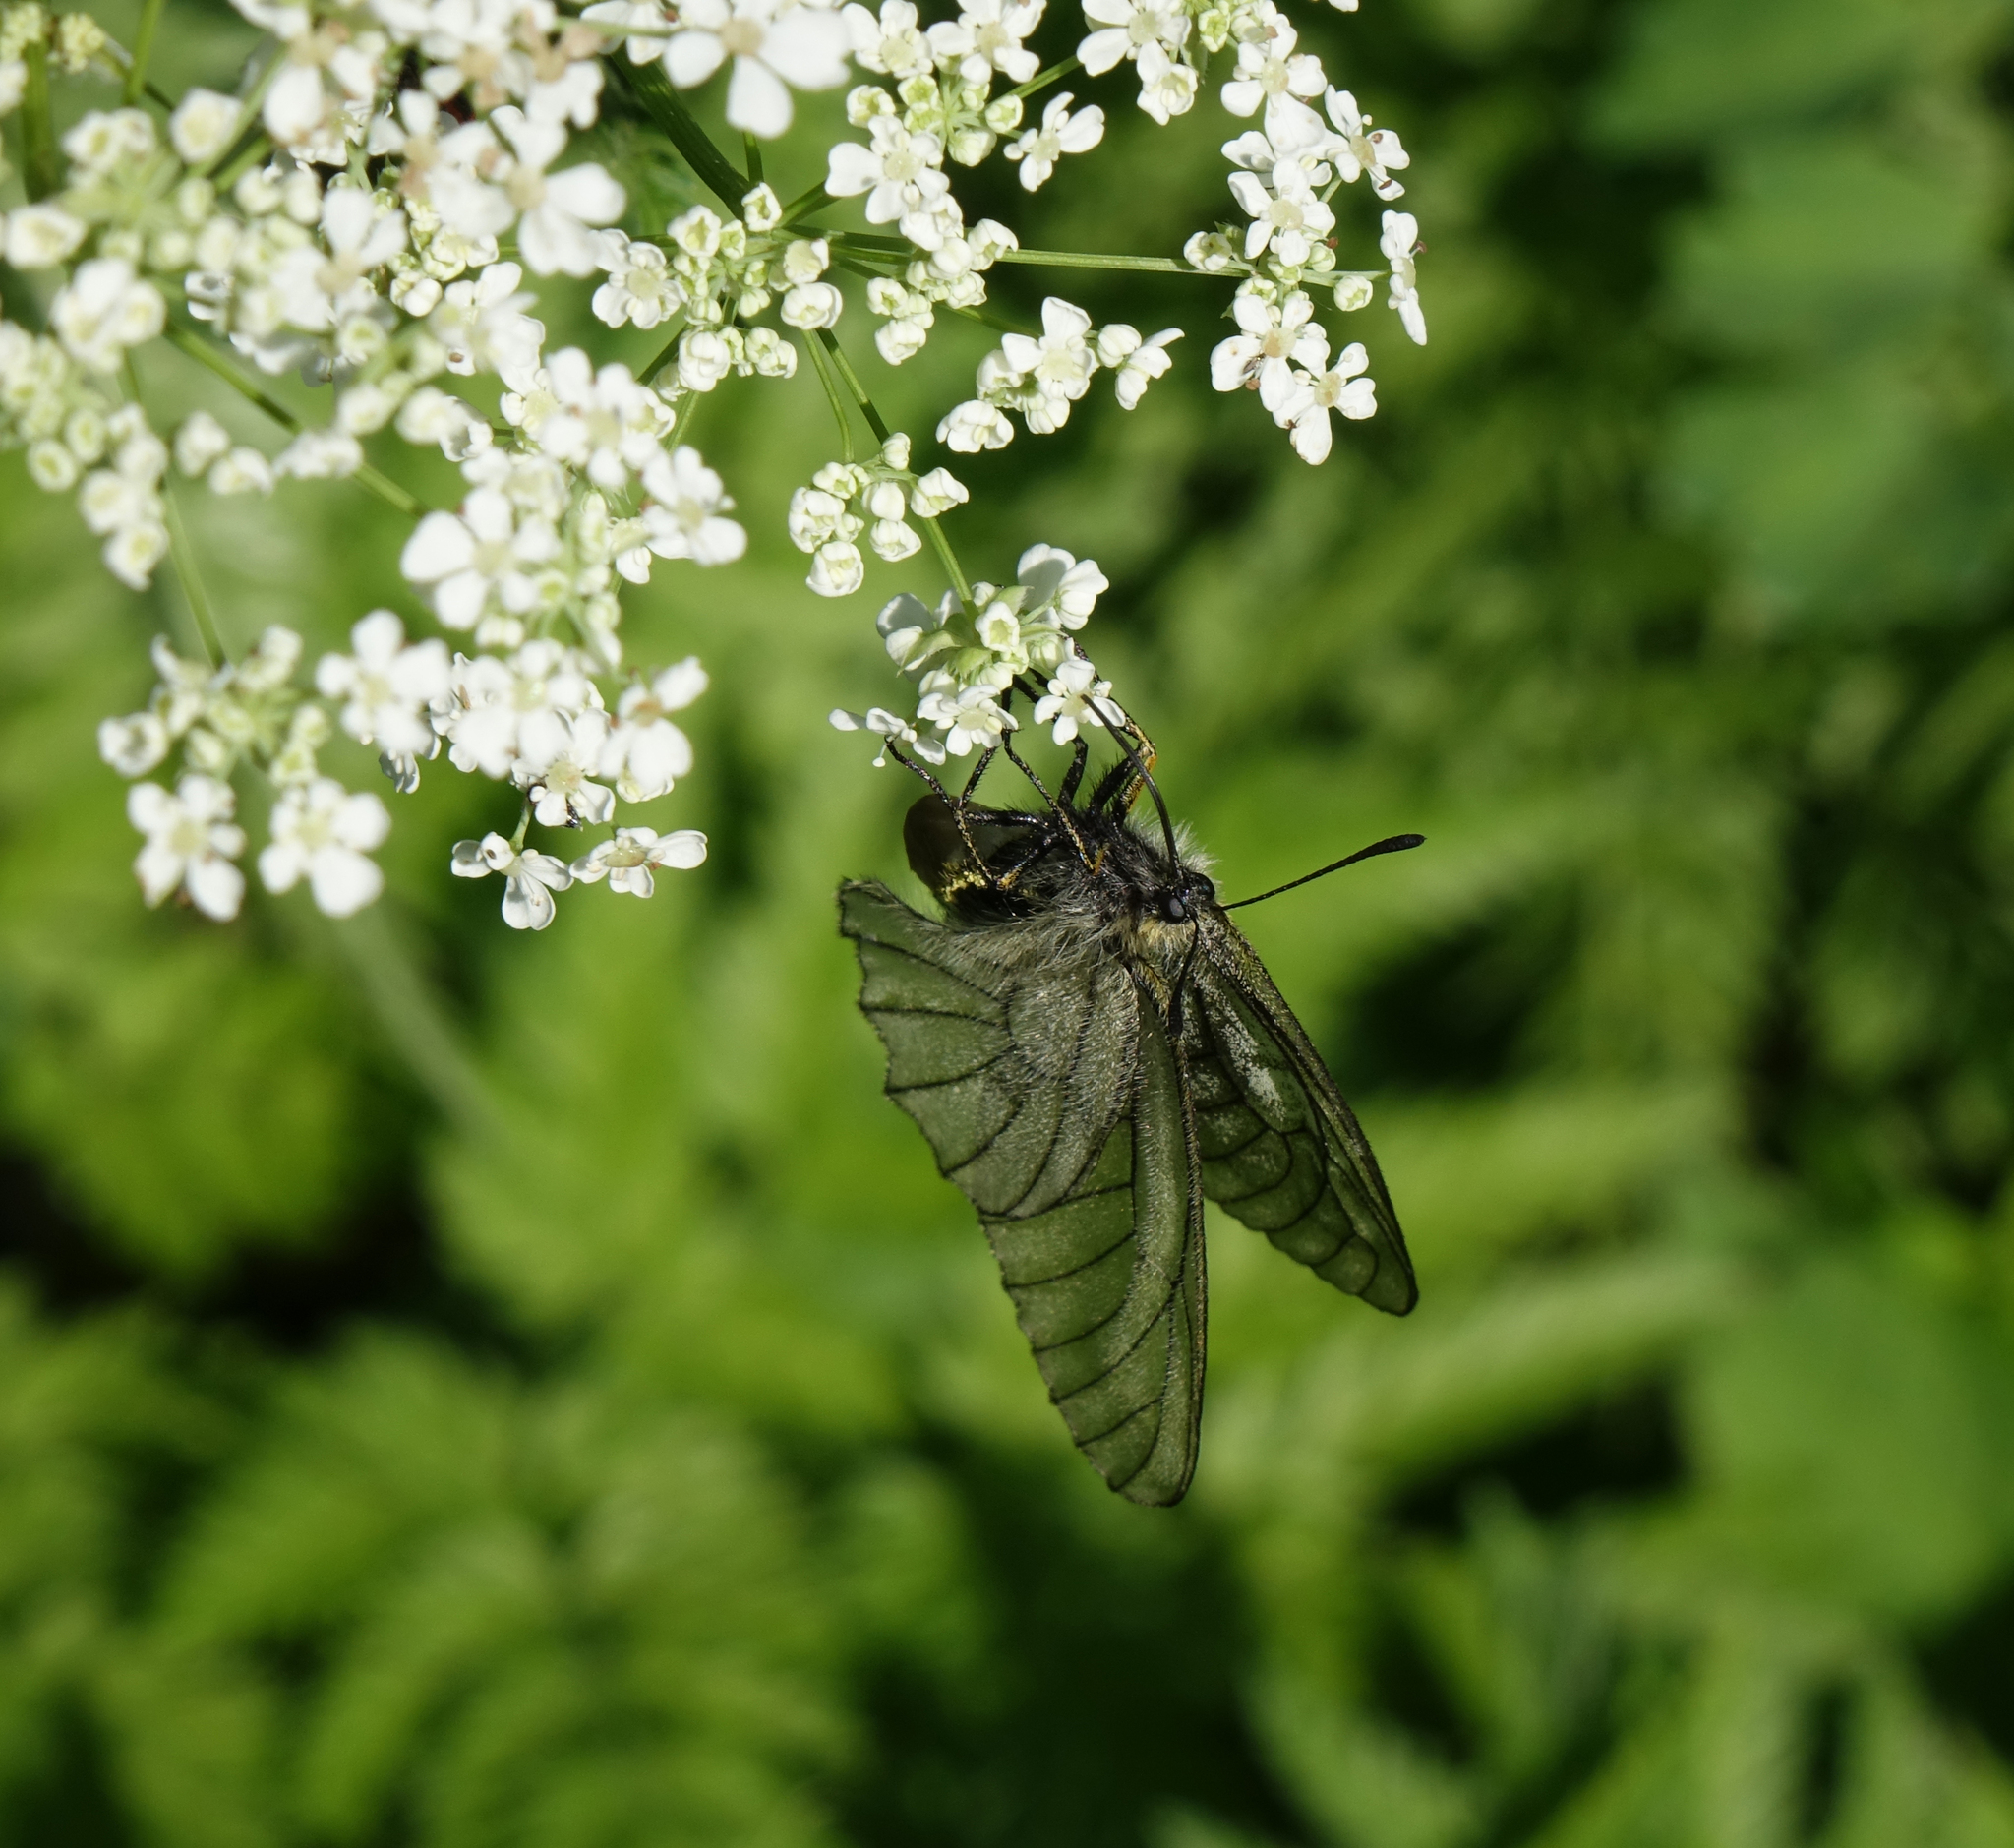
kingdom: Animalia
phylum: Arthropoda
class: Insecta
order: Lepidoptera
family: Papilionidae
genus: Parnassius
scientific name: Parnassius stubbendorfii
